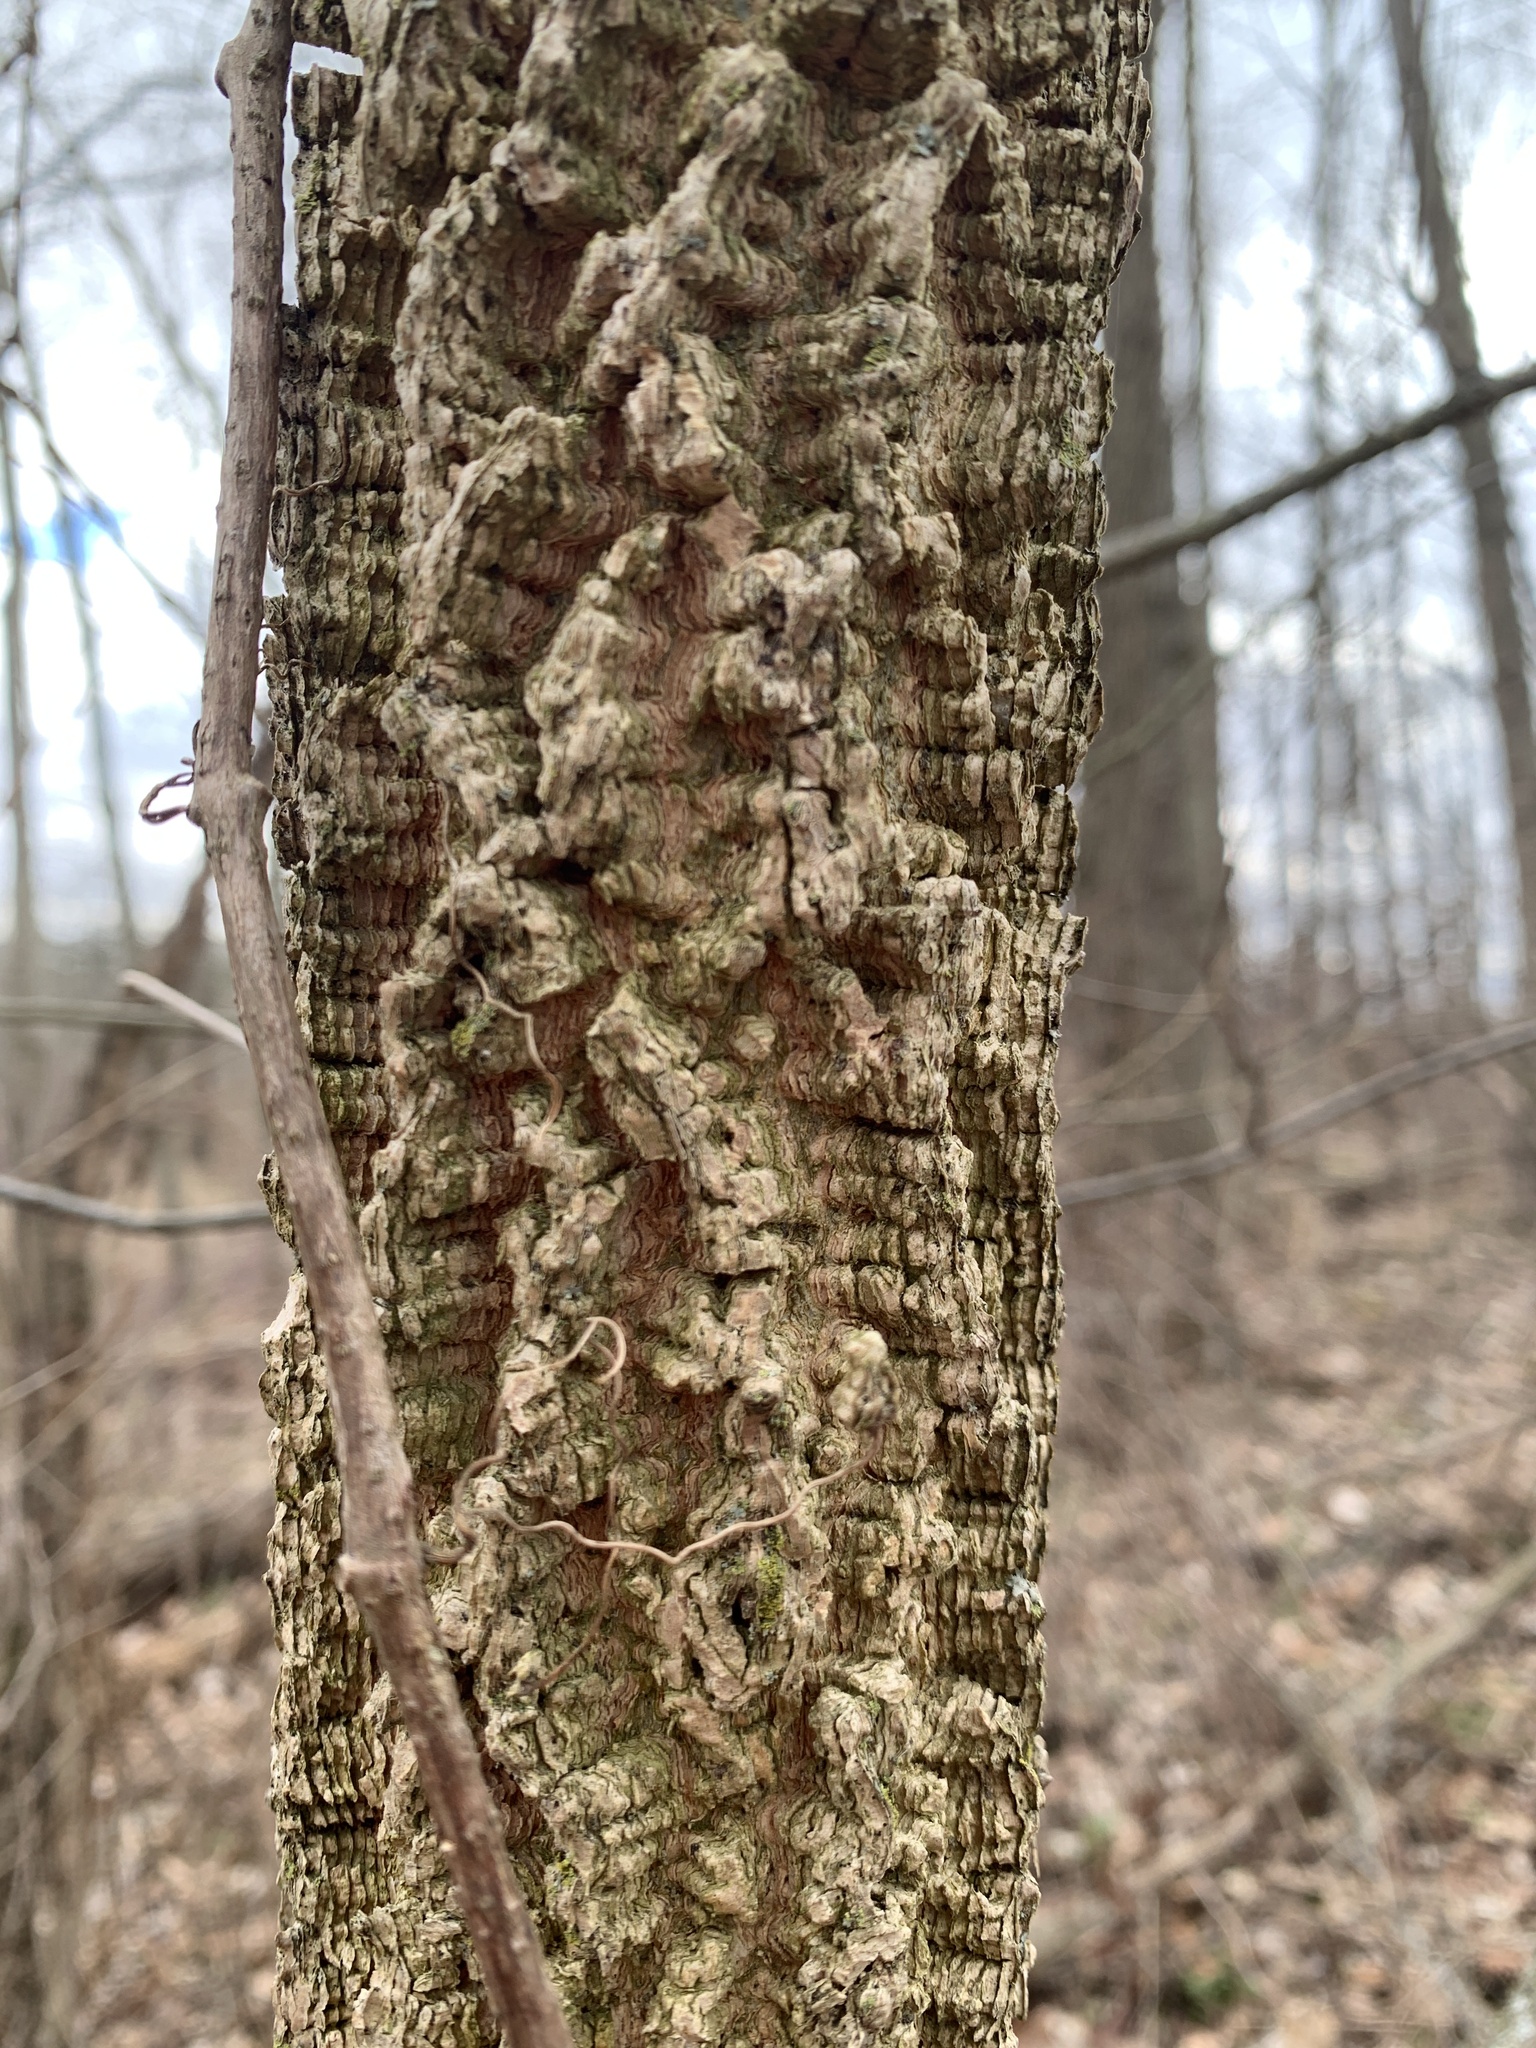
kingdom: Plantae
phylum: Tracheophyta
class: Magnoliopsida
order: Rosales
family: Cannabaceae
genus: Celtis
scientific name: Celtis occidentalis
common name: Common hackberry
